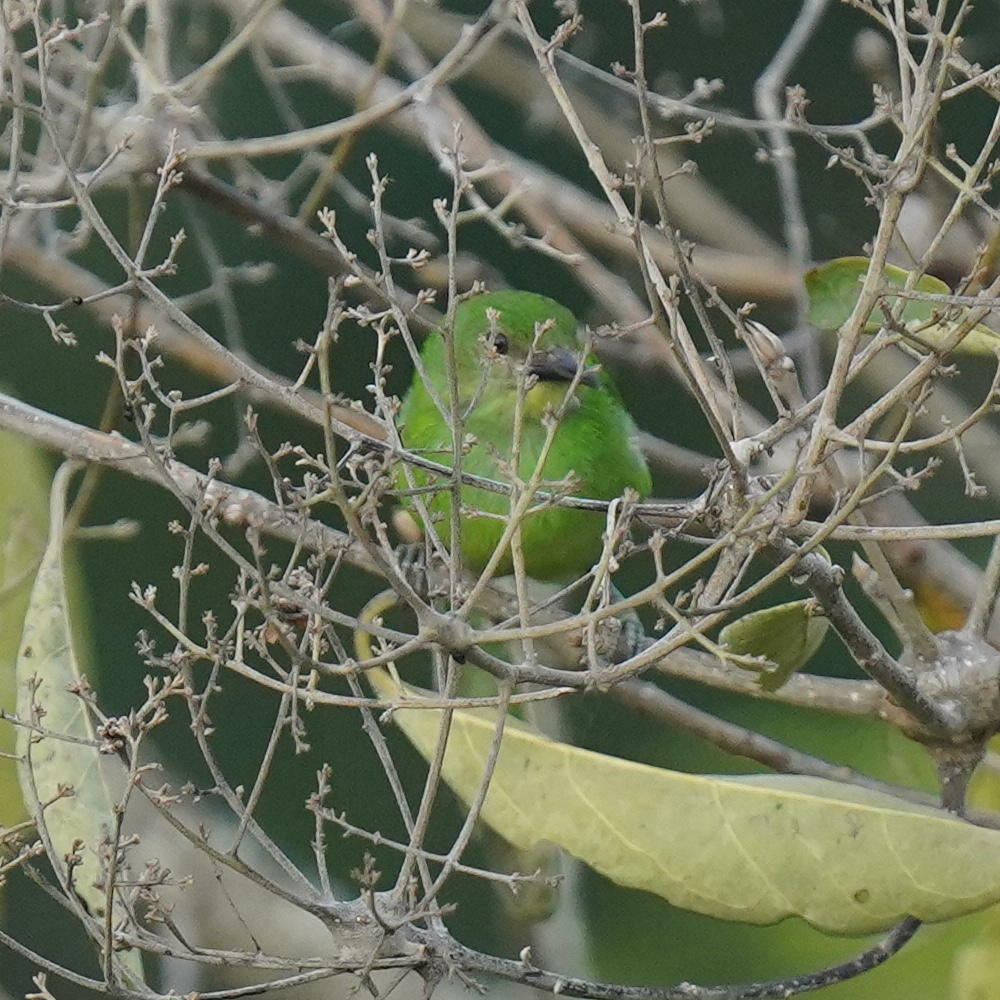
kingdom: Animalia
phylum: Chordata
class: Aves
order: Passeriformes
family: Thraupidae
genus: Chlorophanes
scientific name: Chlorophanes spiza
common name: Green honeycreeper
